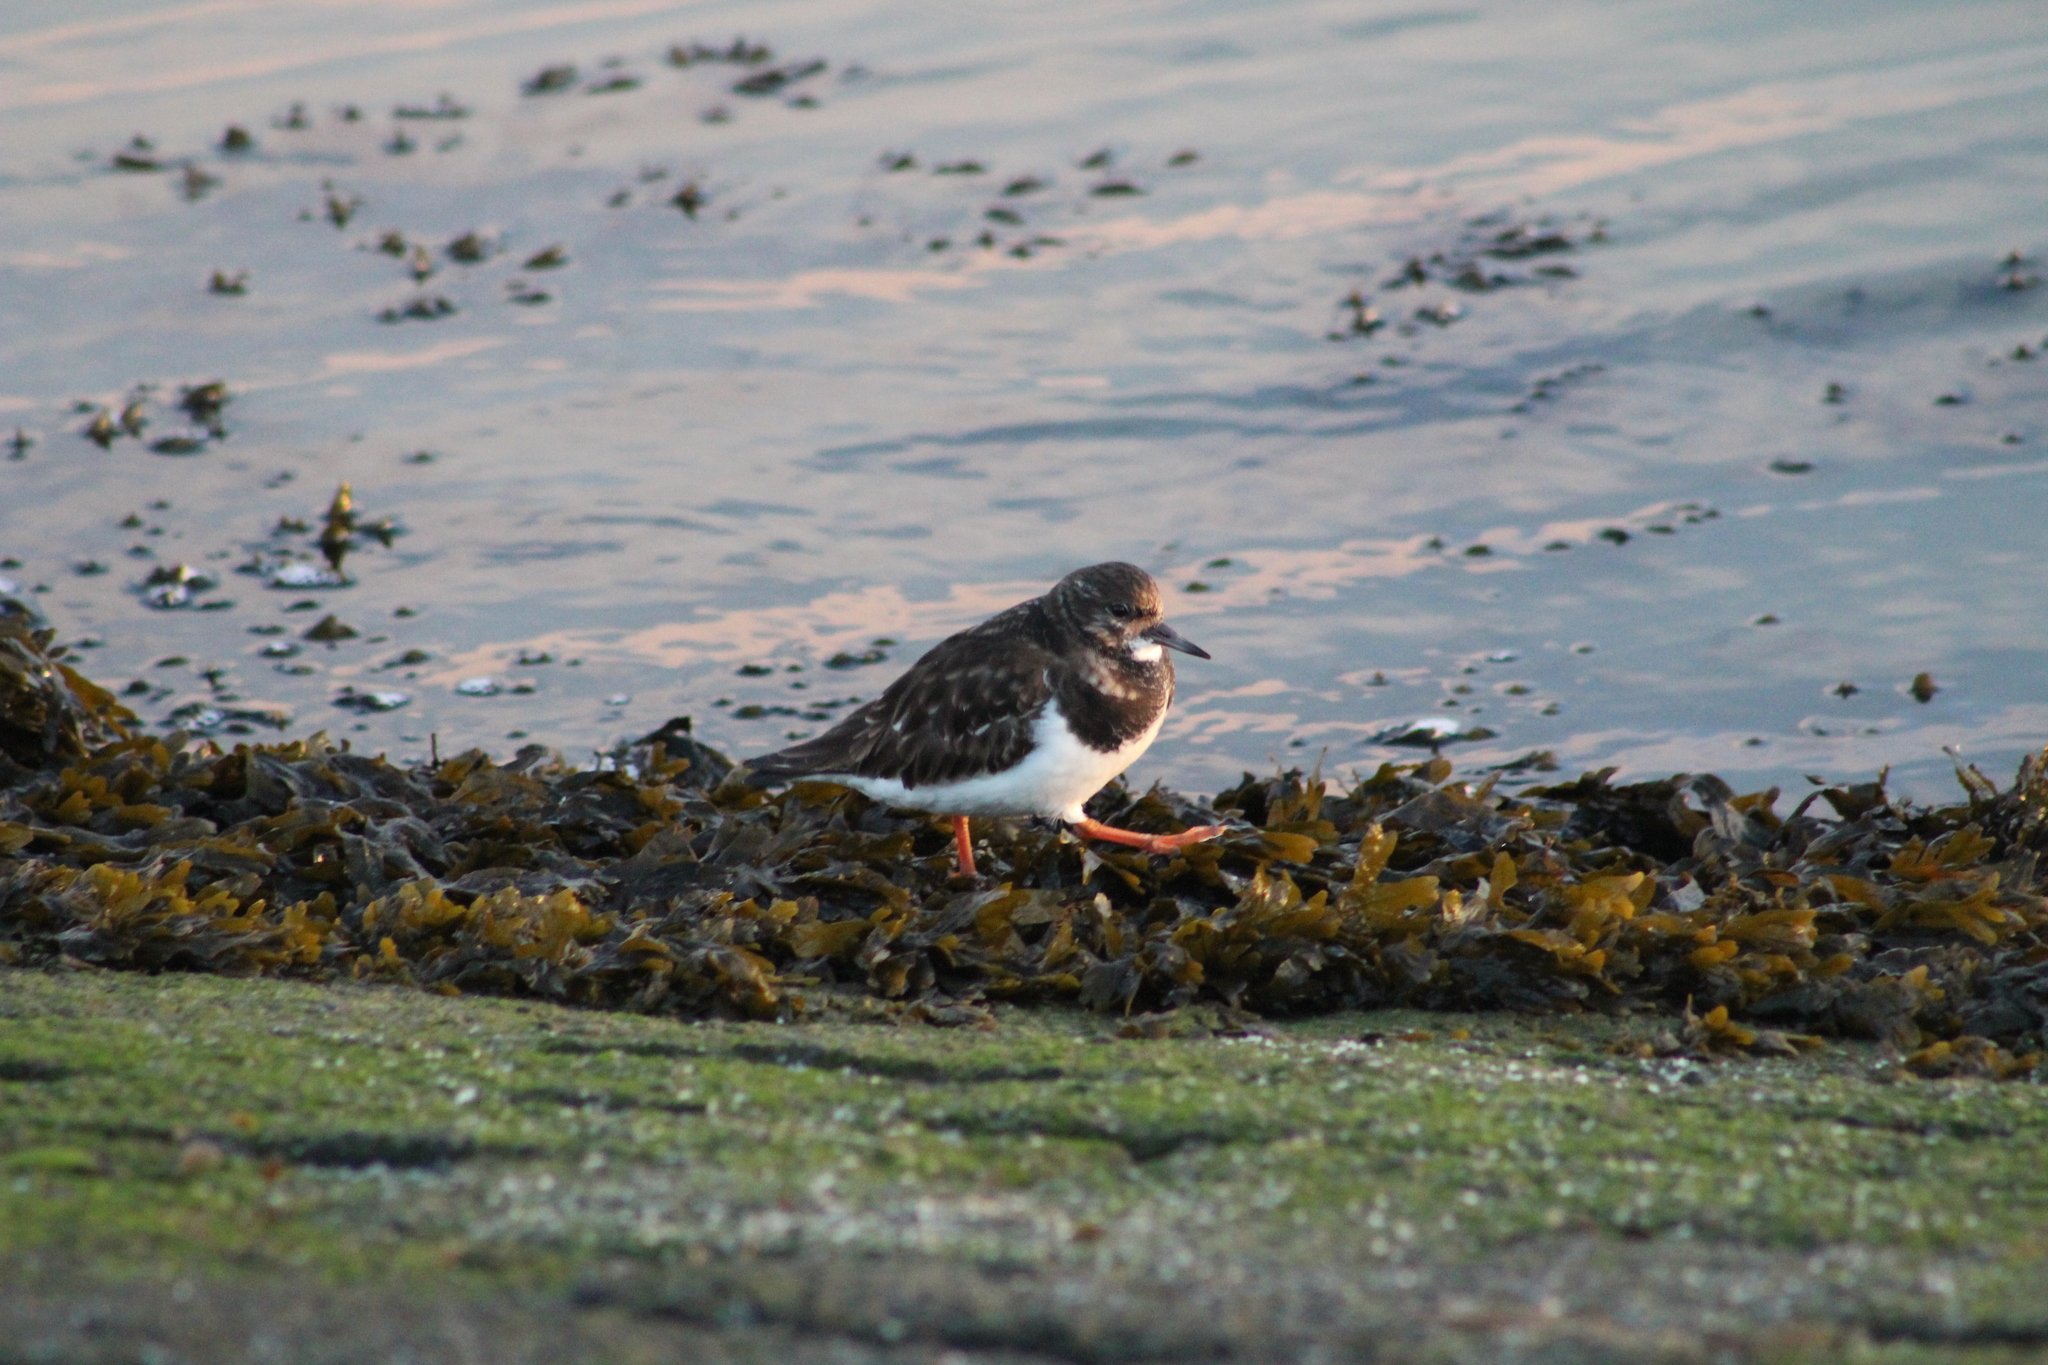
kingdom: Animalia
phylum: Chordata
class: Aves
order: Charadriiformes
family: Scolopacidae
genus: Arenaria
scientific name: Arenaria interpres
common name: Ruddy turnstone
